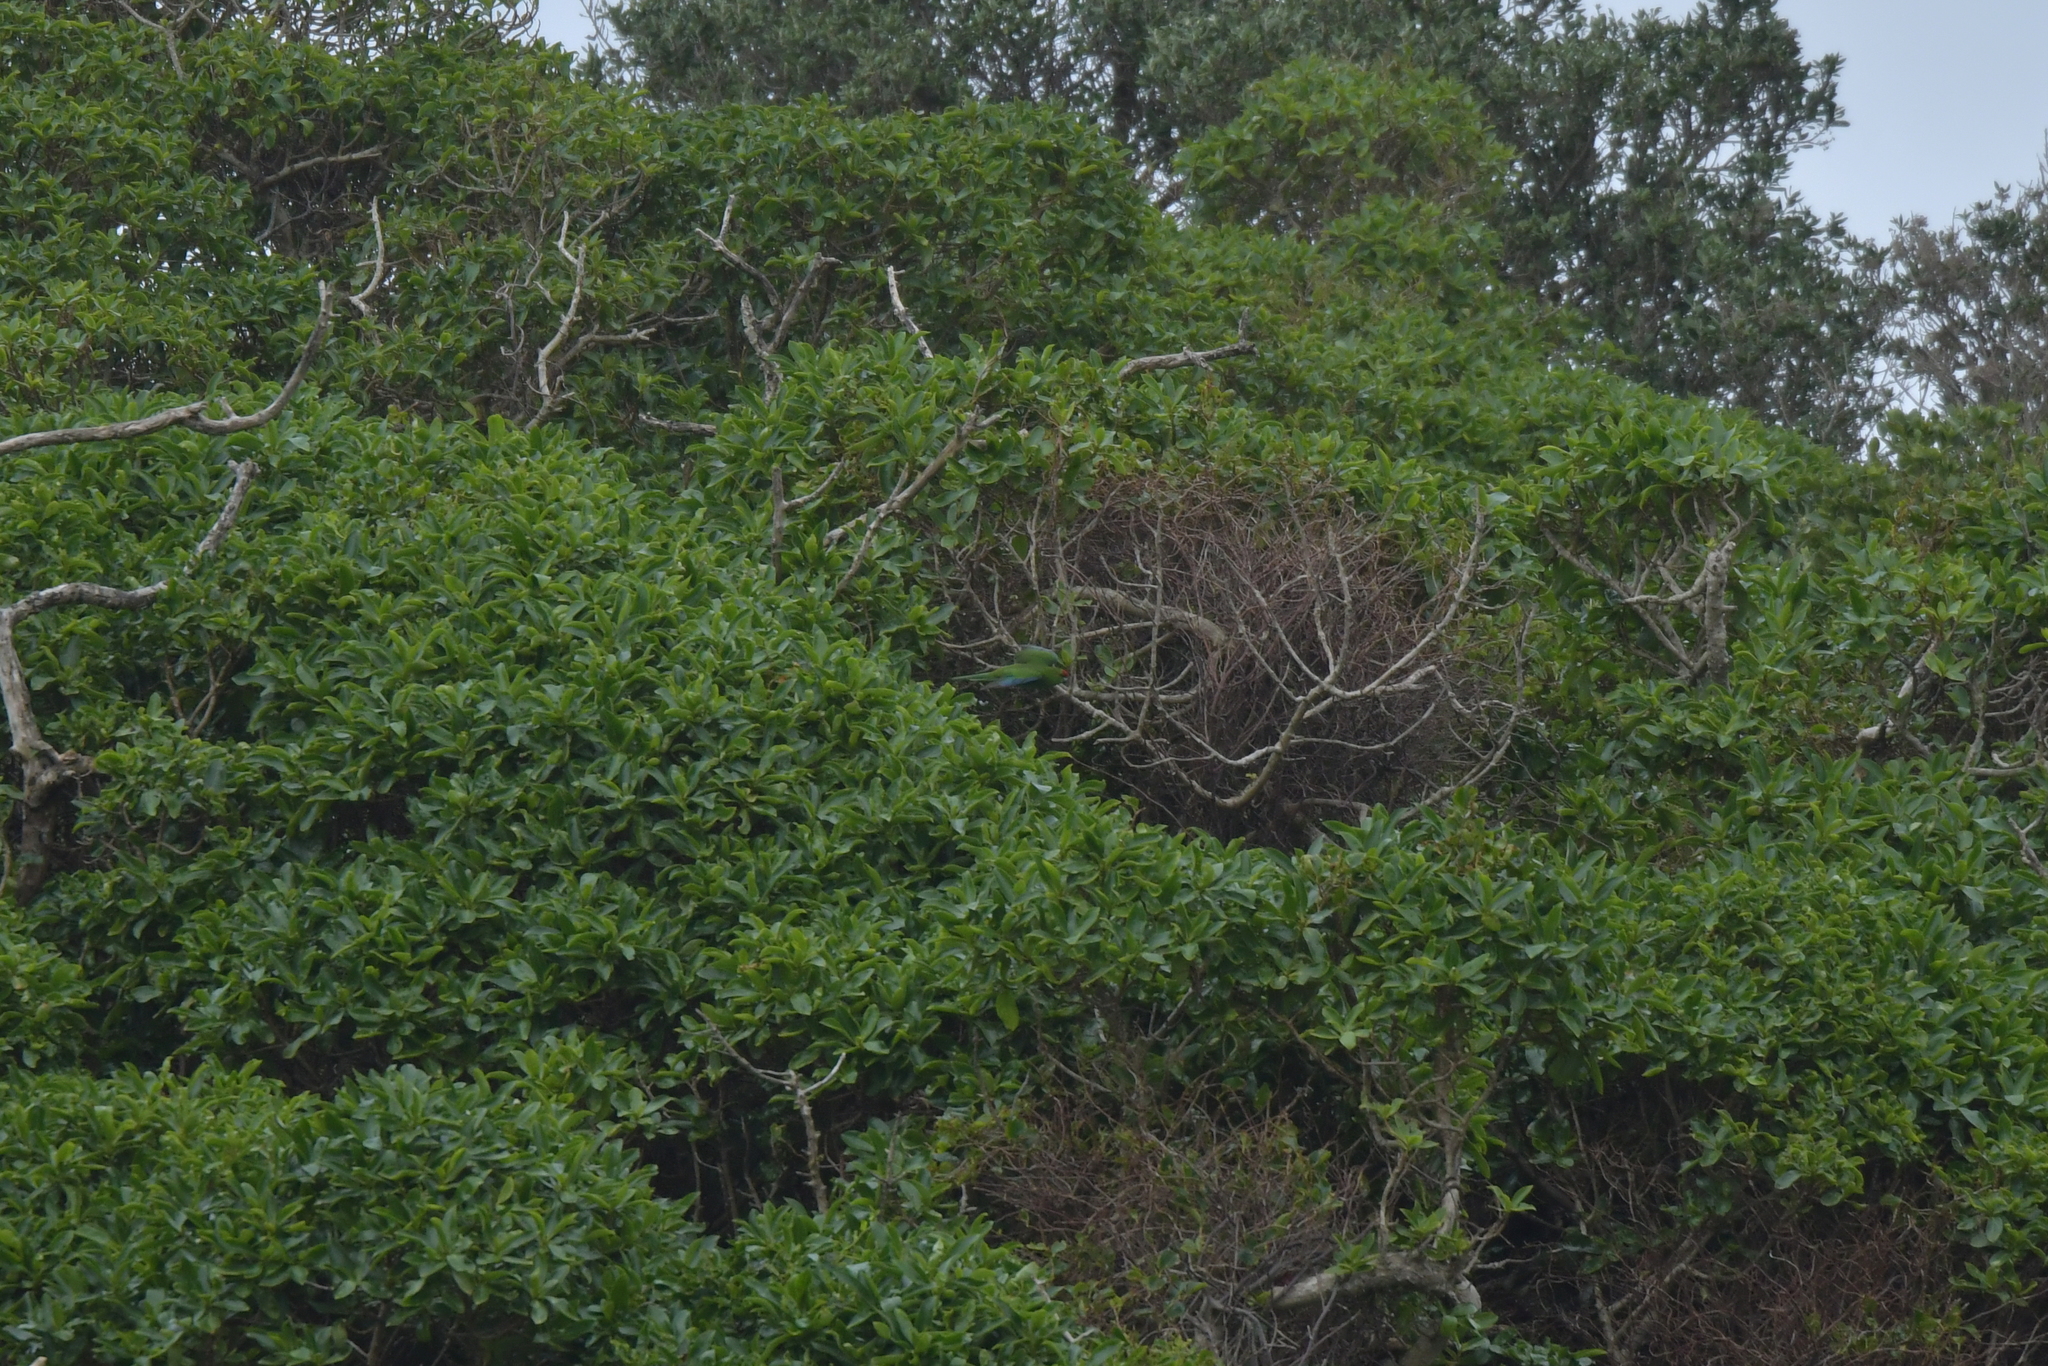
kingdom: Animalia
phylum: Chordata
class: Aves
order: Psittaciformes
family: Psittacidae
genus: Cyanoramphus
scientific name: Cyanoramphus novaezelandiae
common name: Red-fronted parakeet
